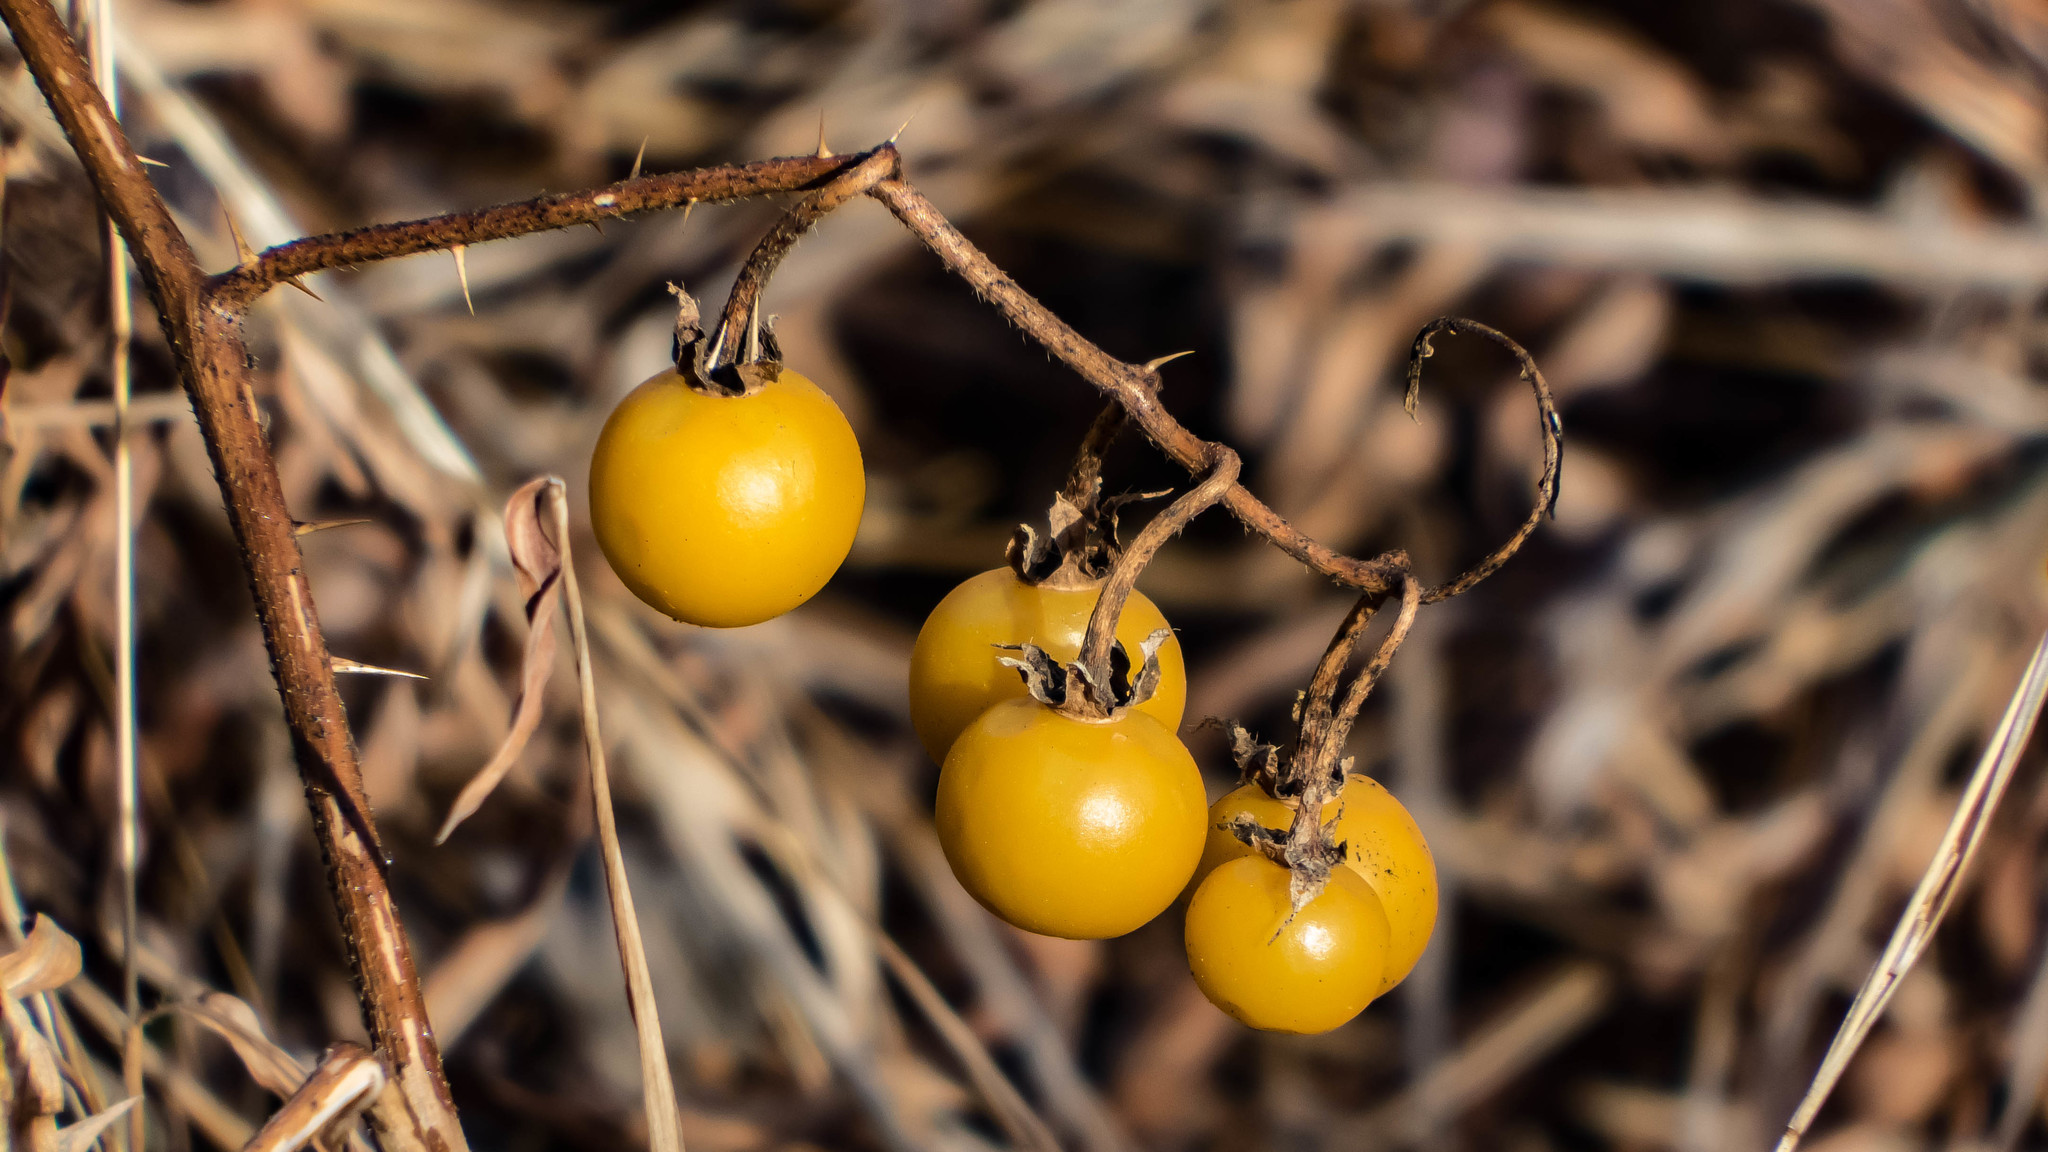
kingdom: Plantae
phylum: Tracheophyta
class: Magnoliopsida
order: Solanales
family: Solanaceae
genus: Solanum
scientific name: Solanum carolinense
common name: Horse-nettle
